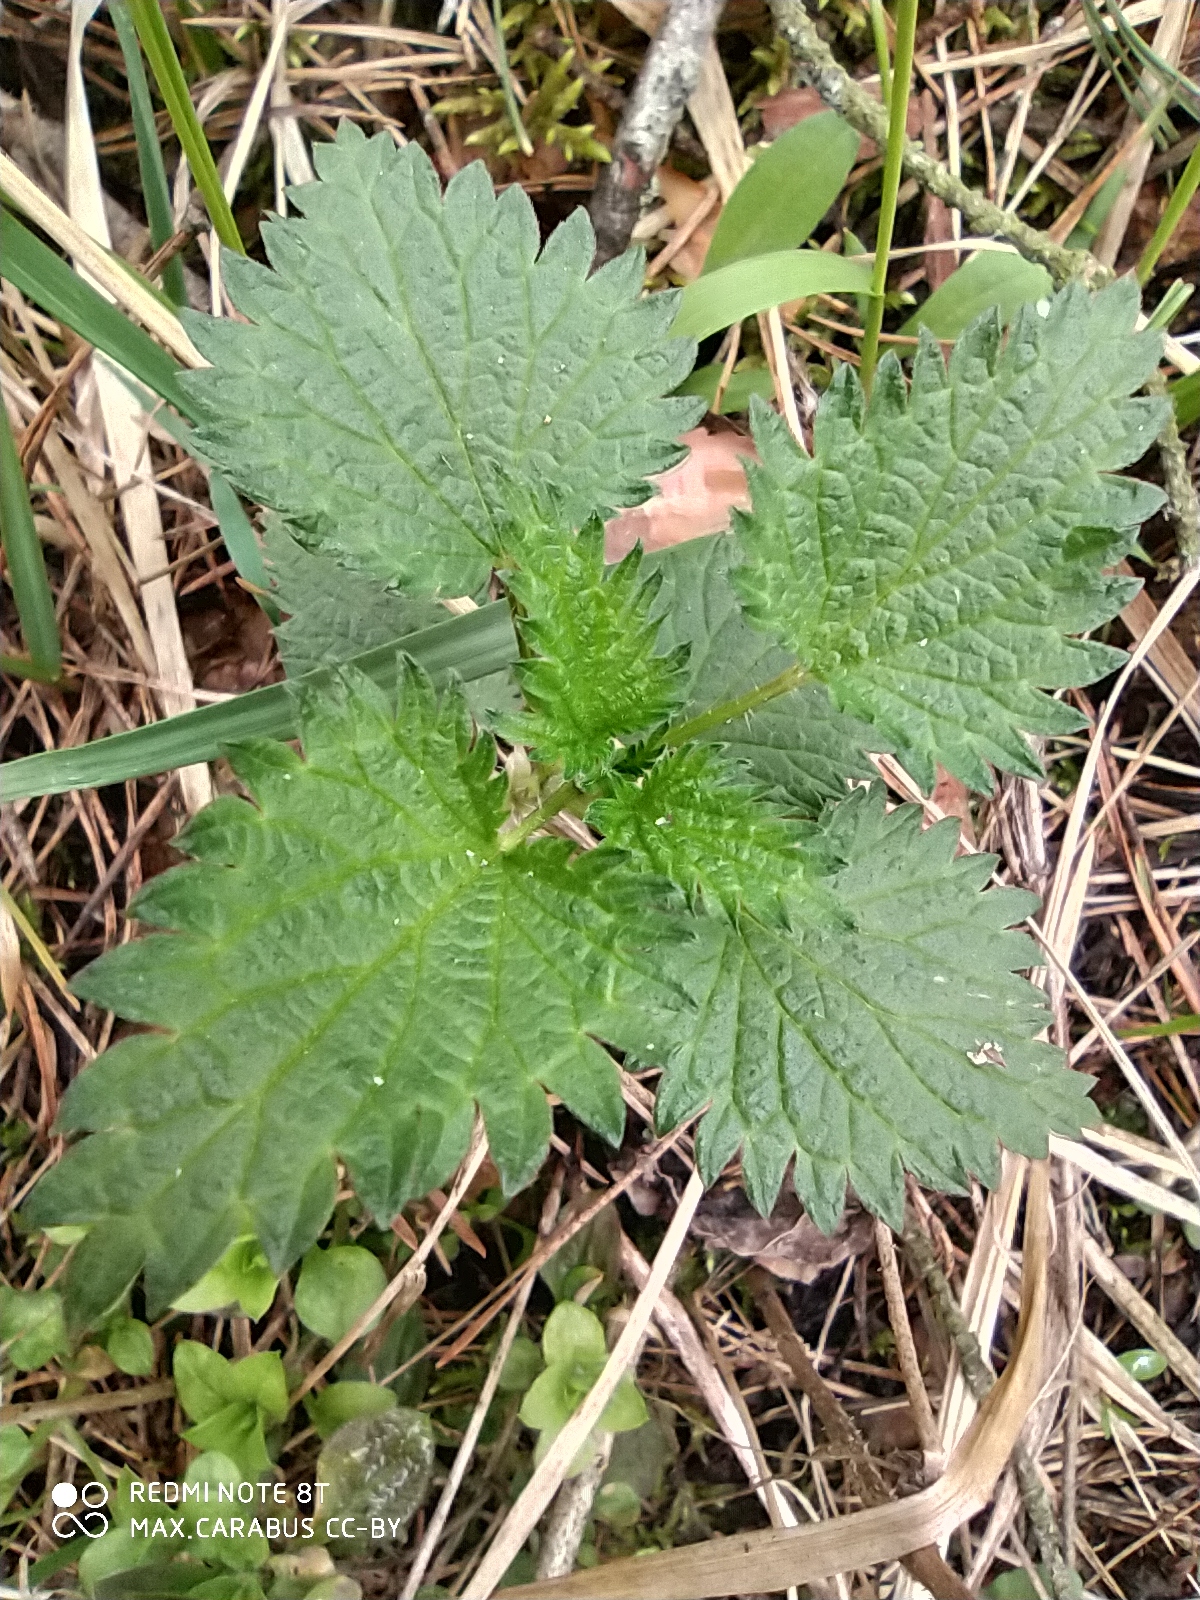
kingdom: Plantae
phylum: Tracheophyta
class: Magnoliopsida
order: Rosales
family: Urticaceae
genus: Urtica
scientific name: Urtica dioica
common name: Common nettle
